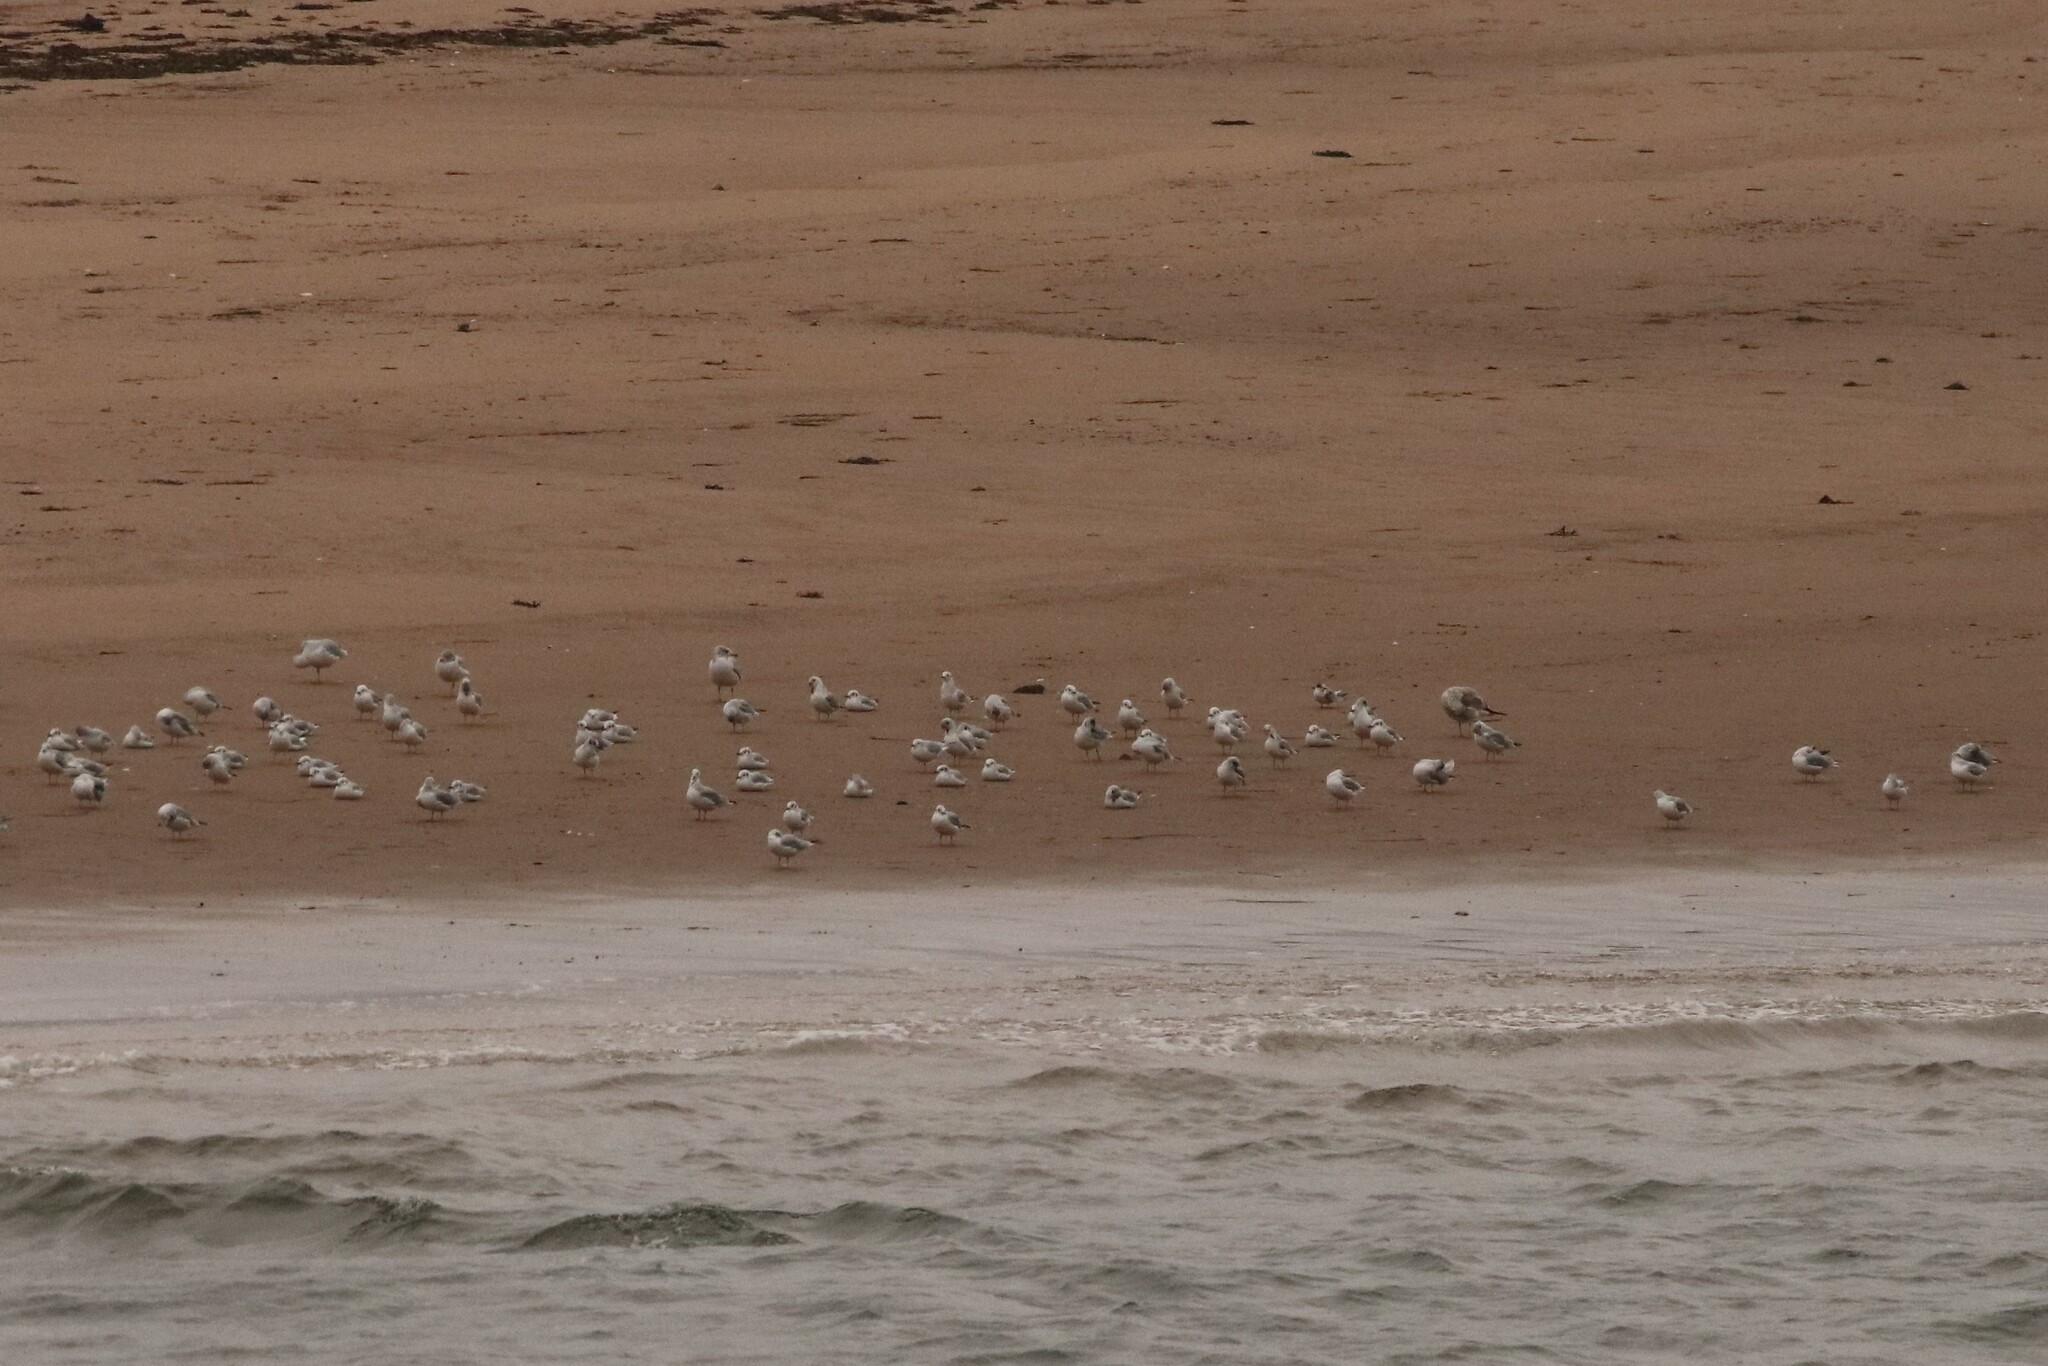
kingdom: Animalia
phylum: Chordata
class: Aves
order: Charadriiformes
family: Laridae
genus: Chroicocephalus
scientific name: Chroicocephalus philadelphia
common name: Bonaparte's gull
